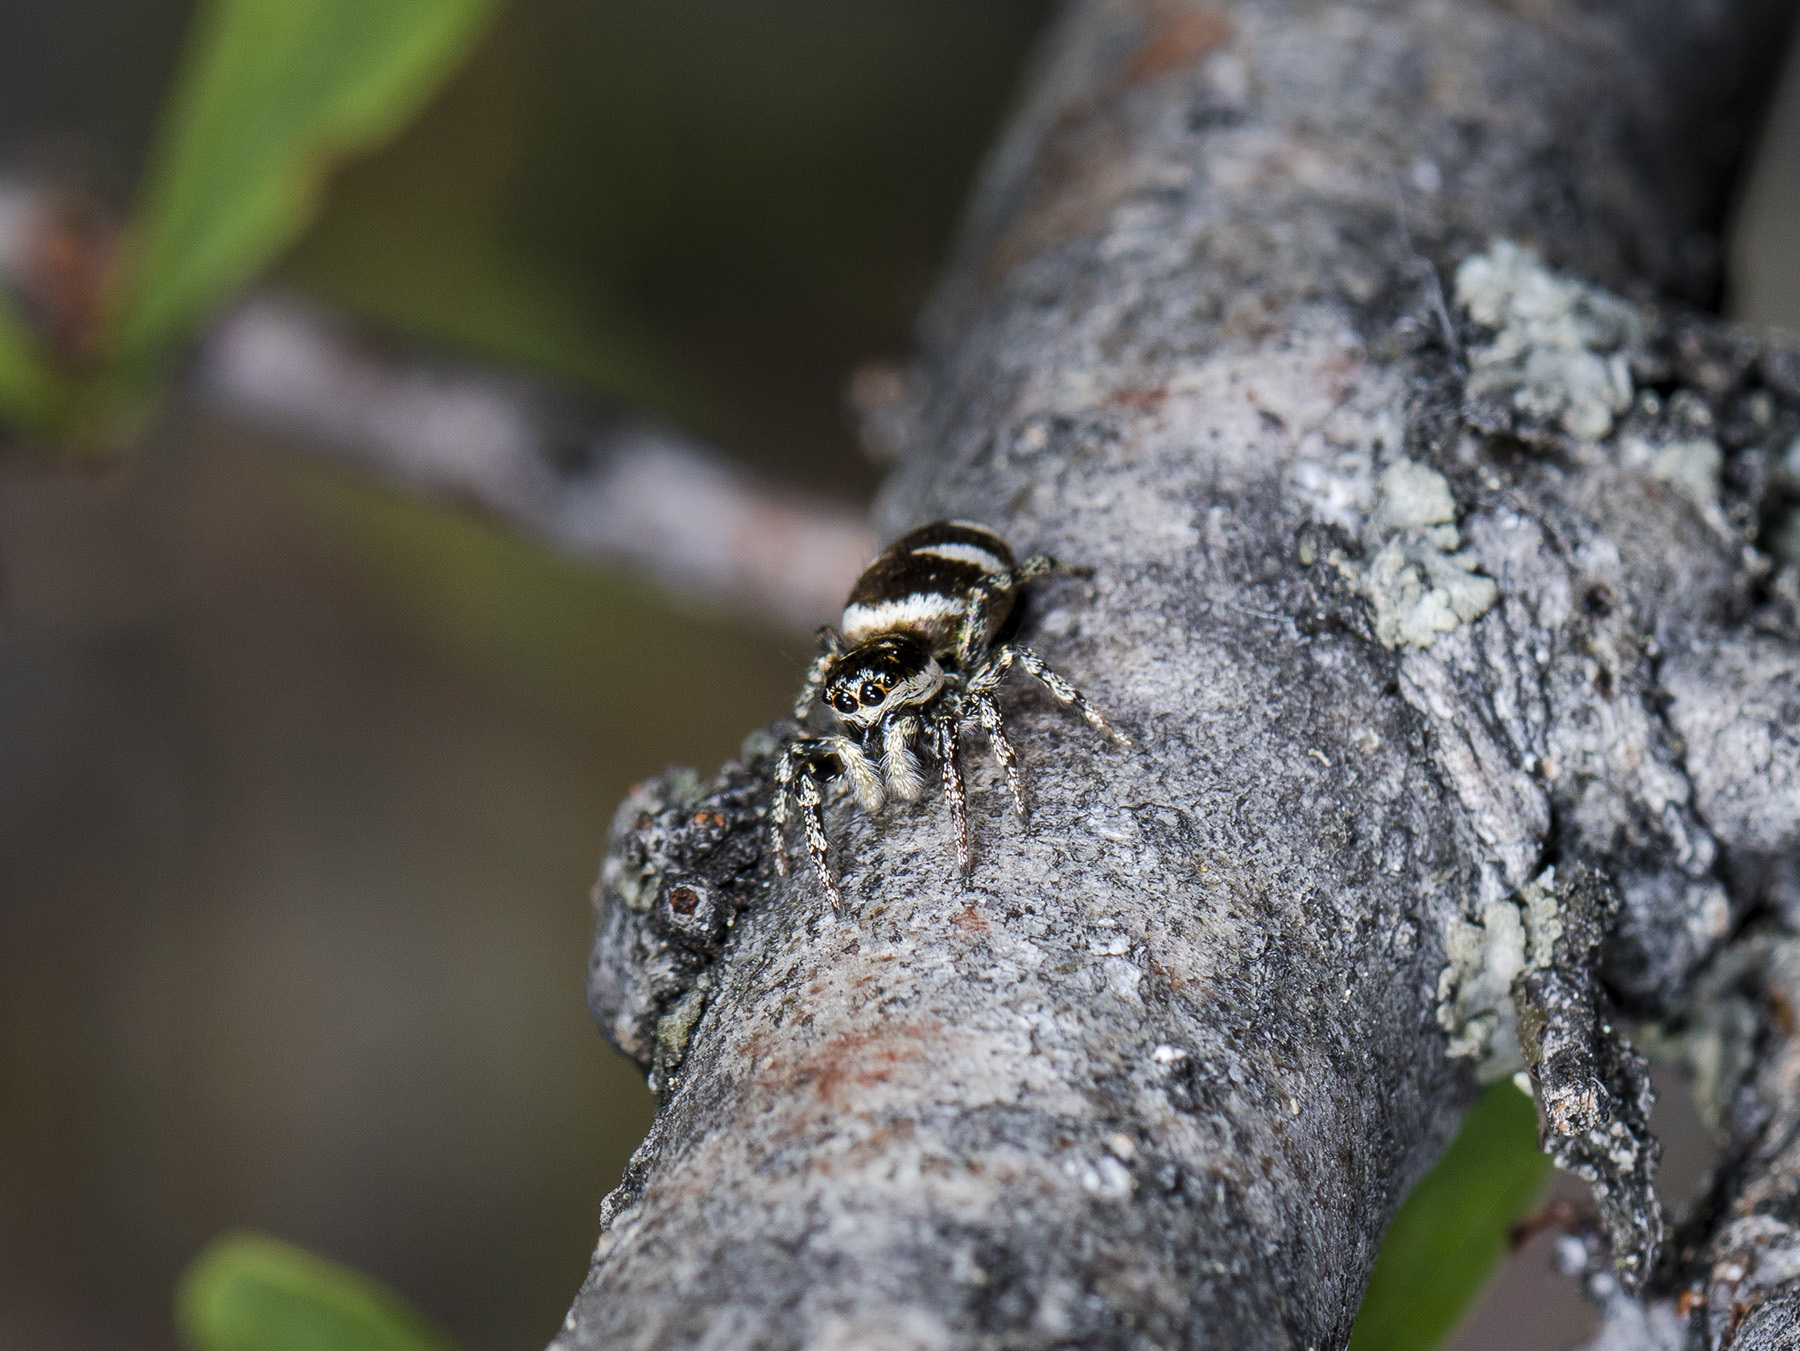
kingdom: Animalia
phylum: Arthropoda
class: Arachnida
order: Araneae
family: Salticidae
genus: Salticus
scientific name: Salticus scenicus
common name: Zebra jumper
